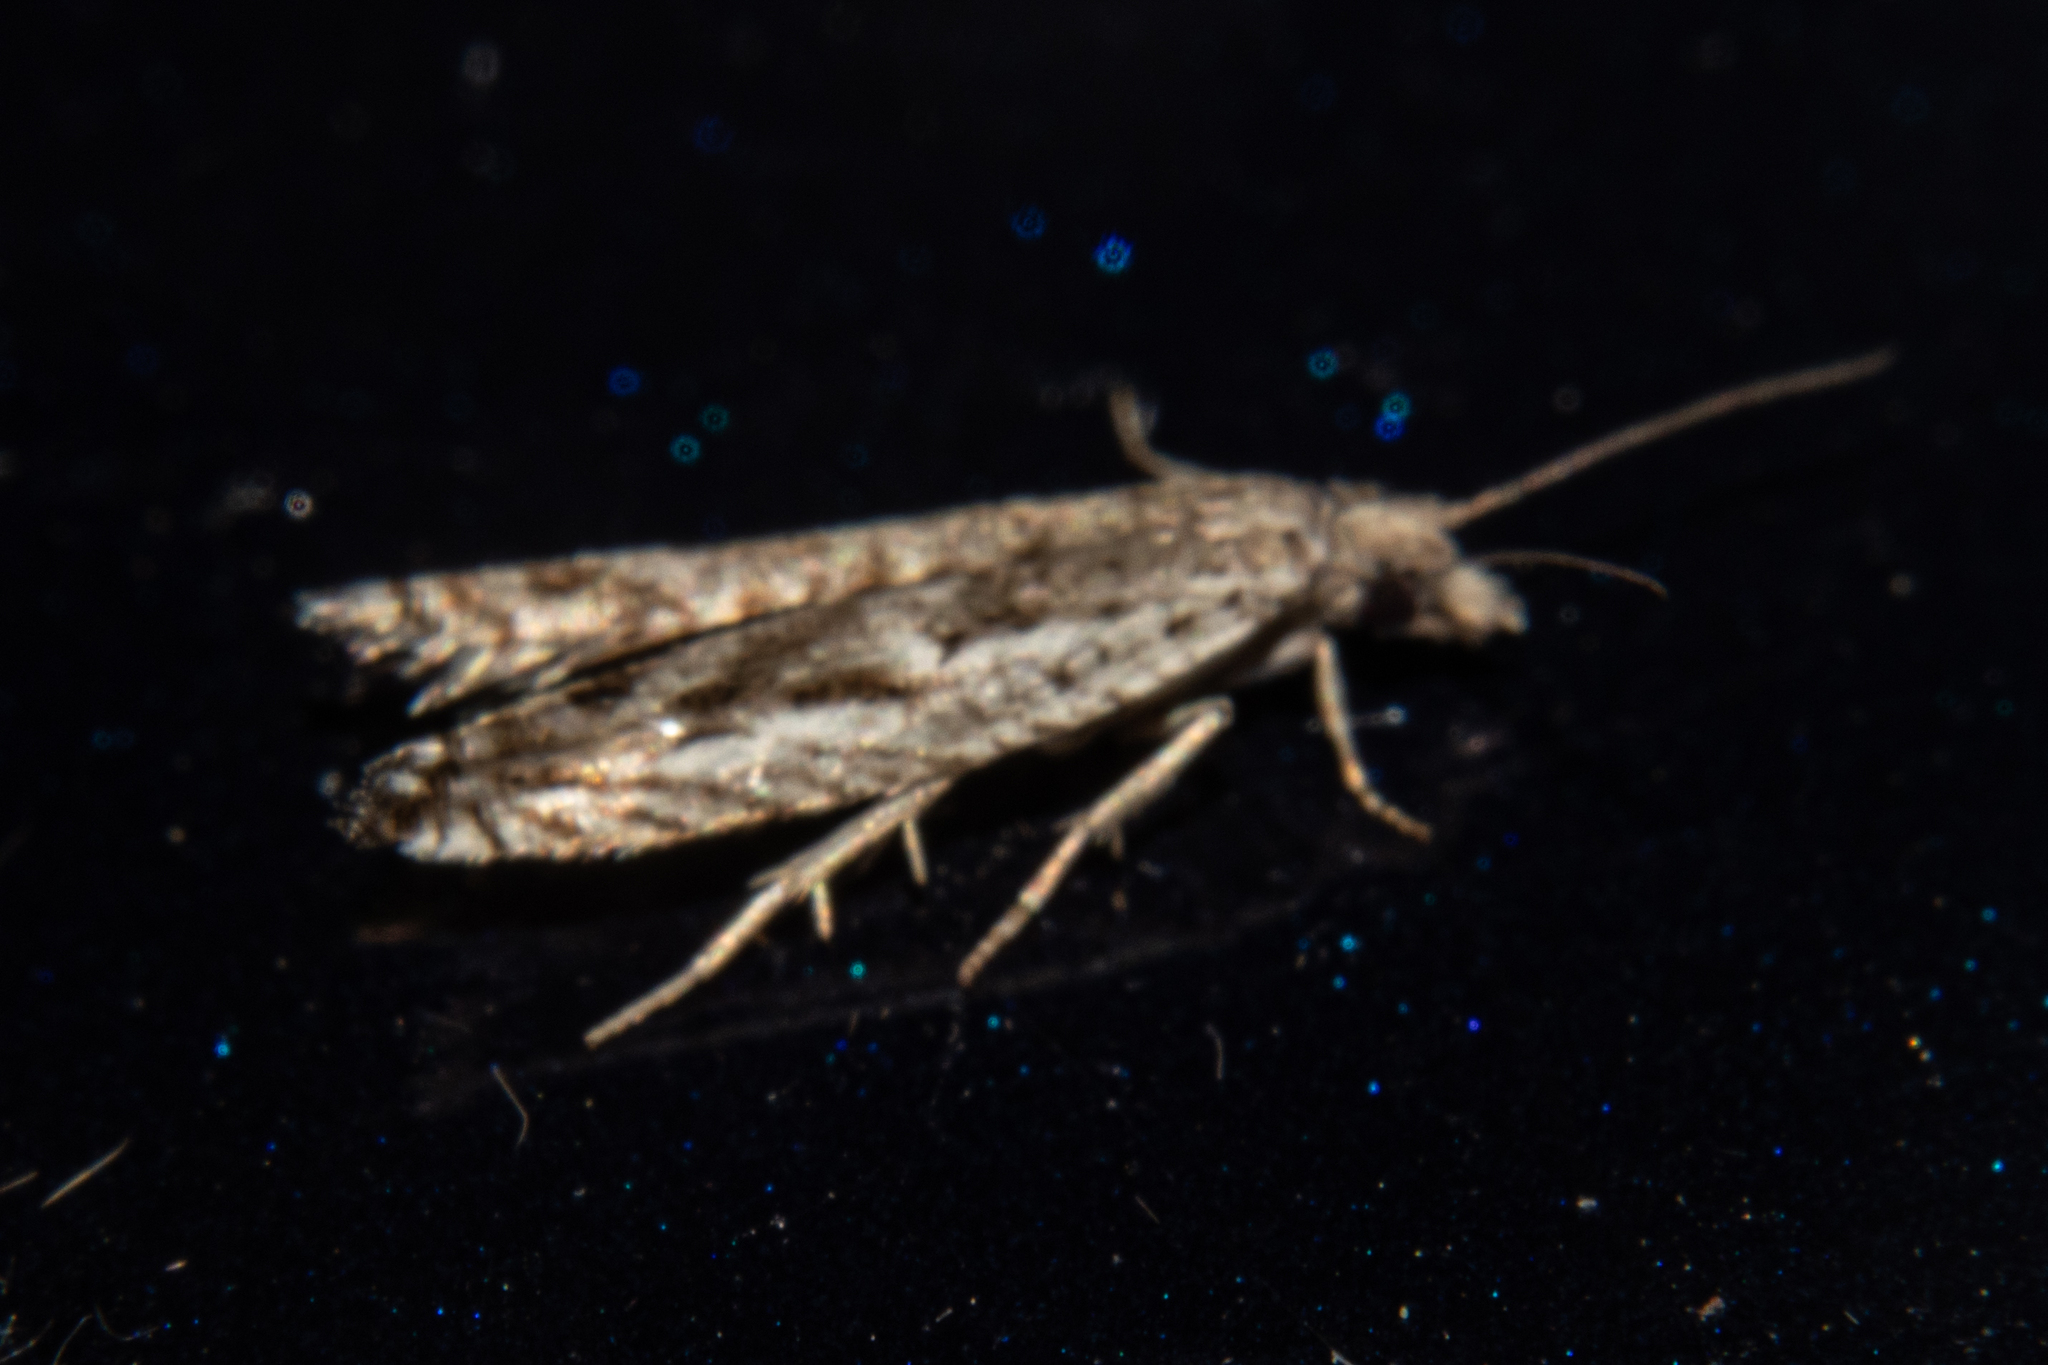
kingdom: Animalia
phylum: Arthropoda
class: Insecta
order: Lepidoptera
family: Tortricidae
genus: Holocola
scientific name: Holocola zopherana
